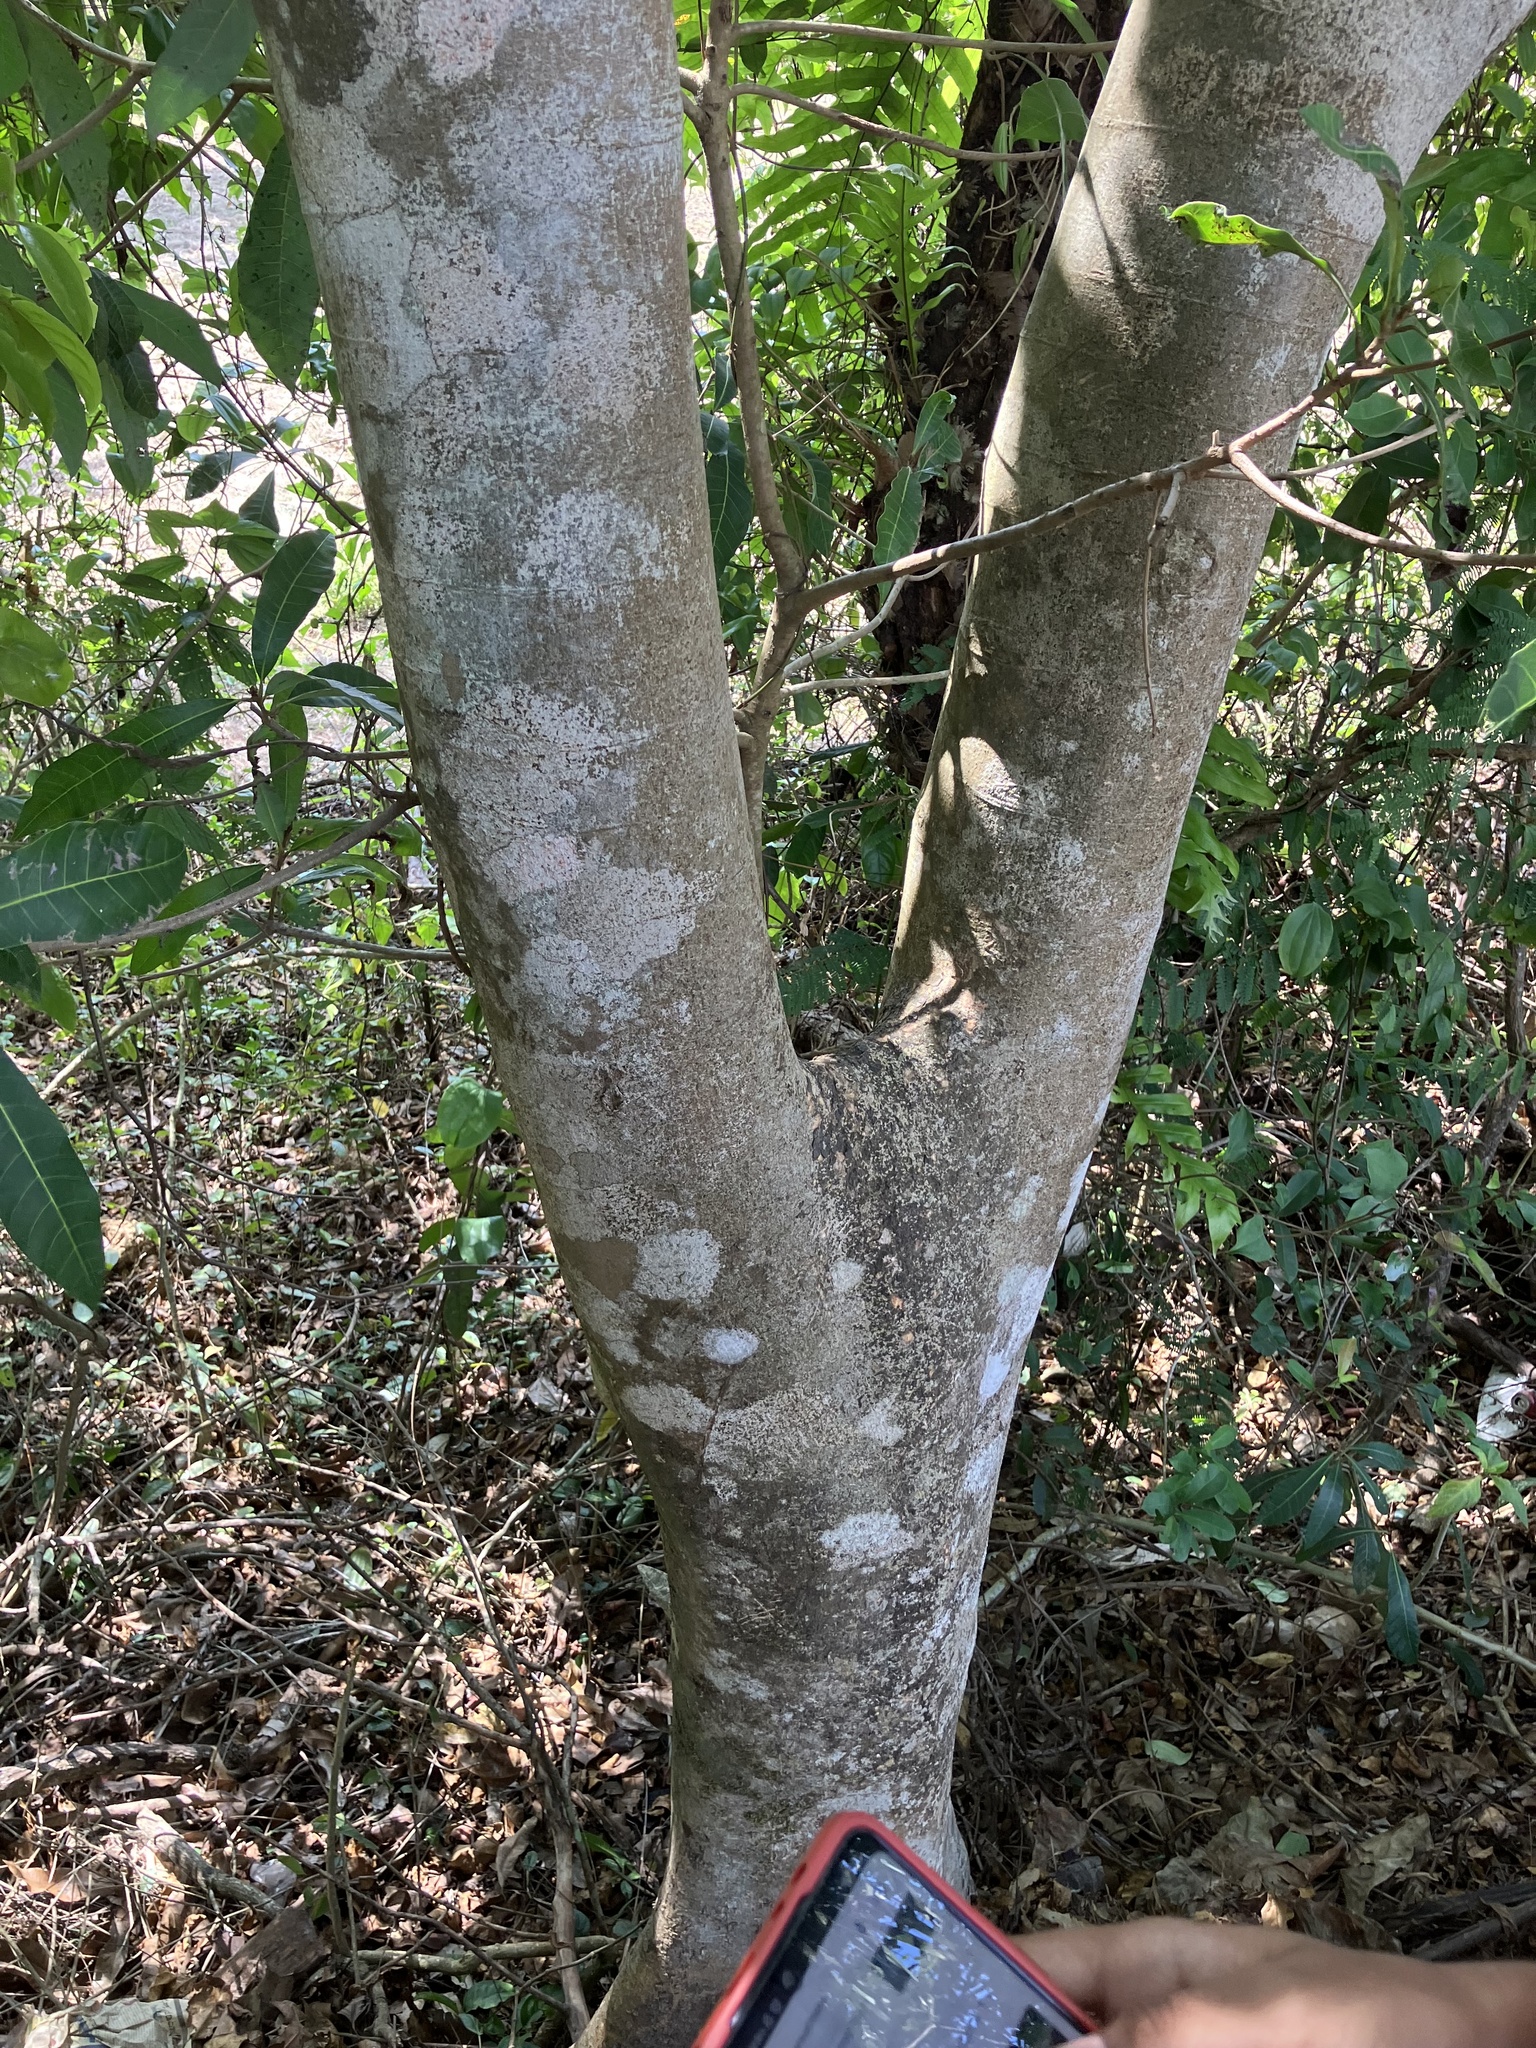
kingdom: Plantae
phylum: Tracheophyta
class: Magnoliopsida
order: Sapindales
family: Anacardiaceae
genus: Holigarna
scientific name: Holigarna arnottiana
